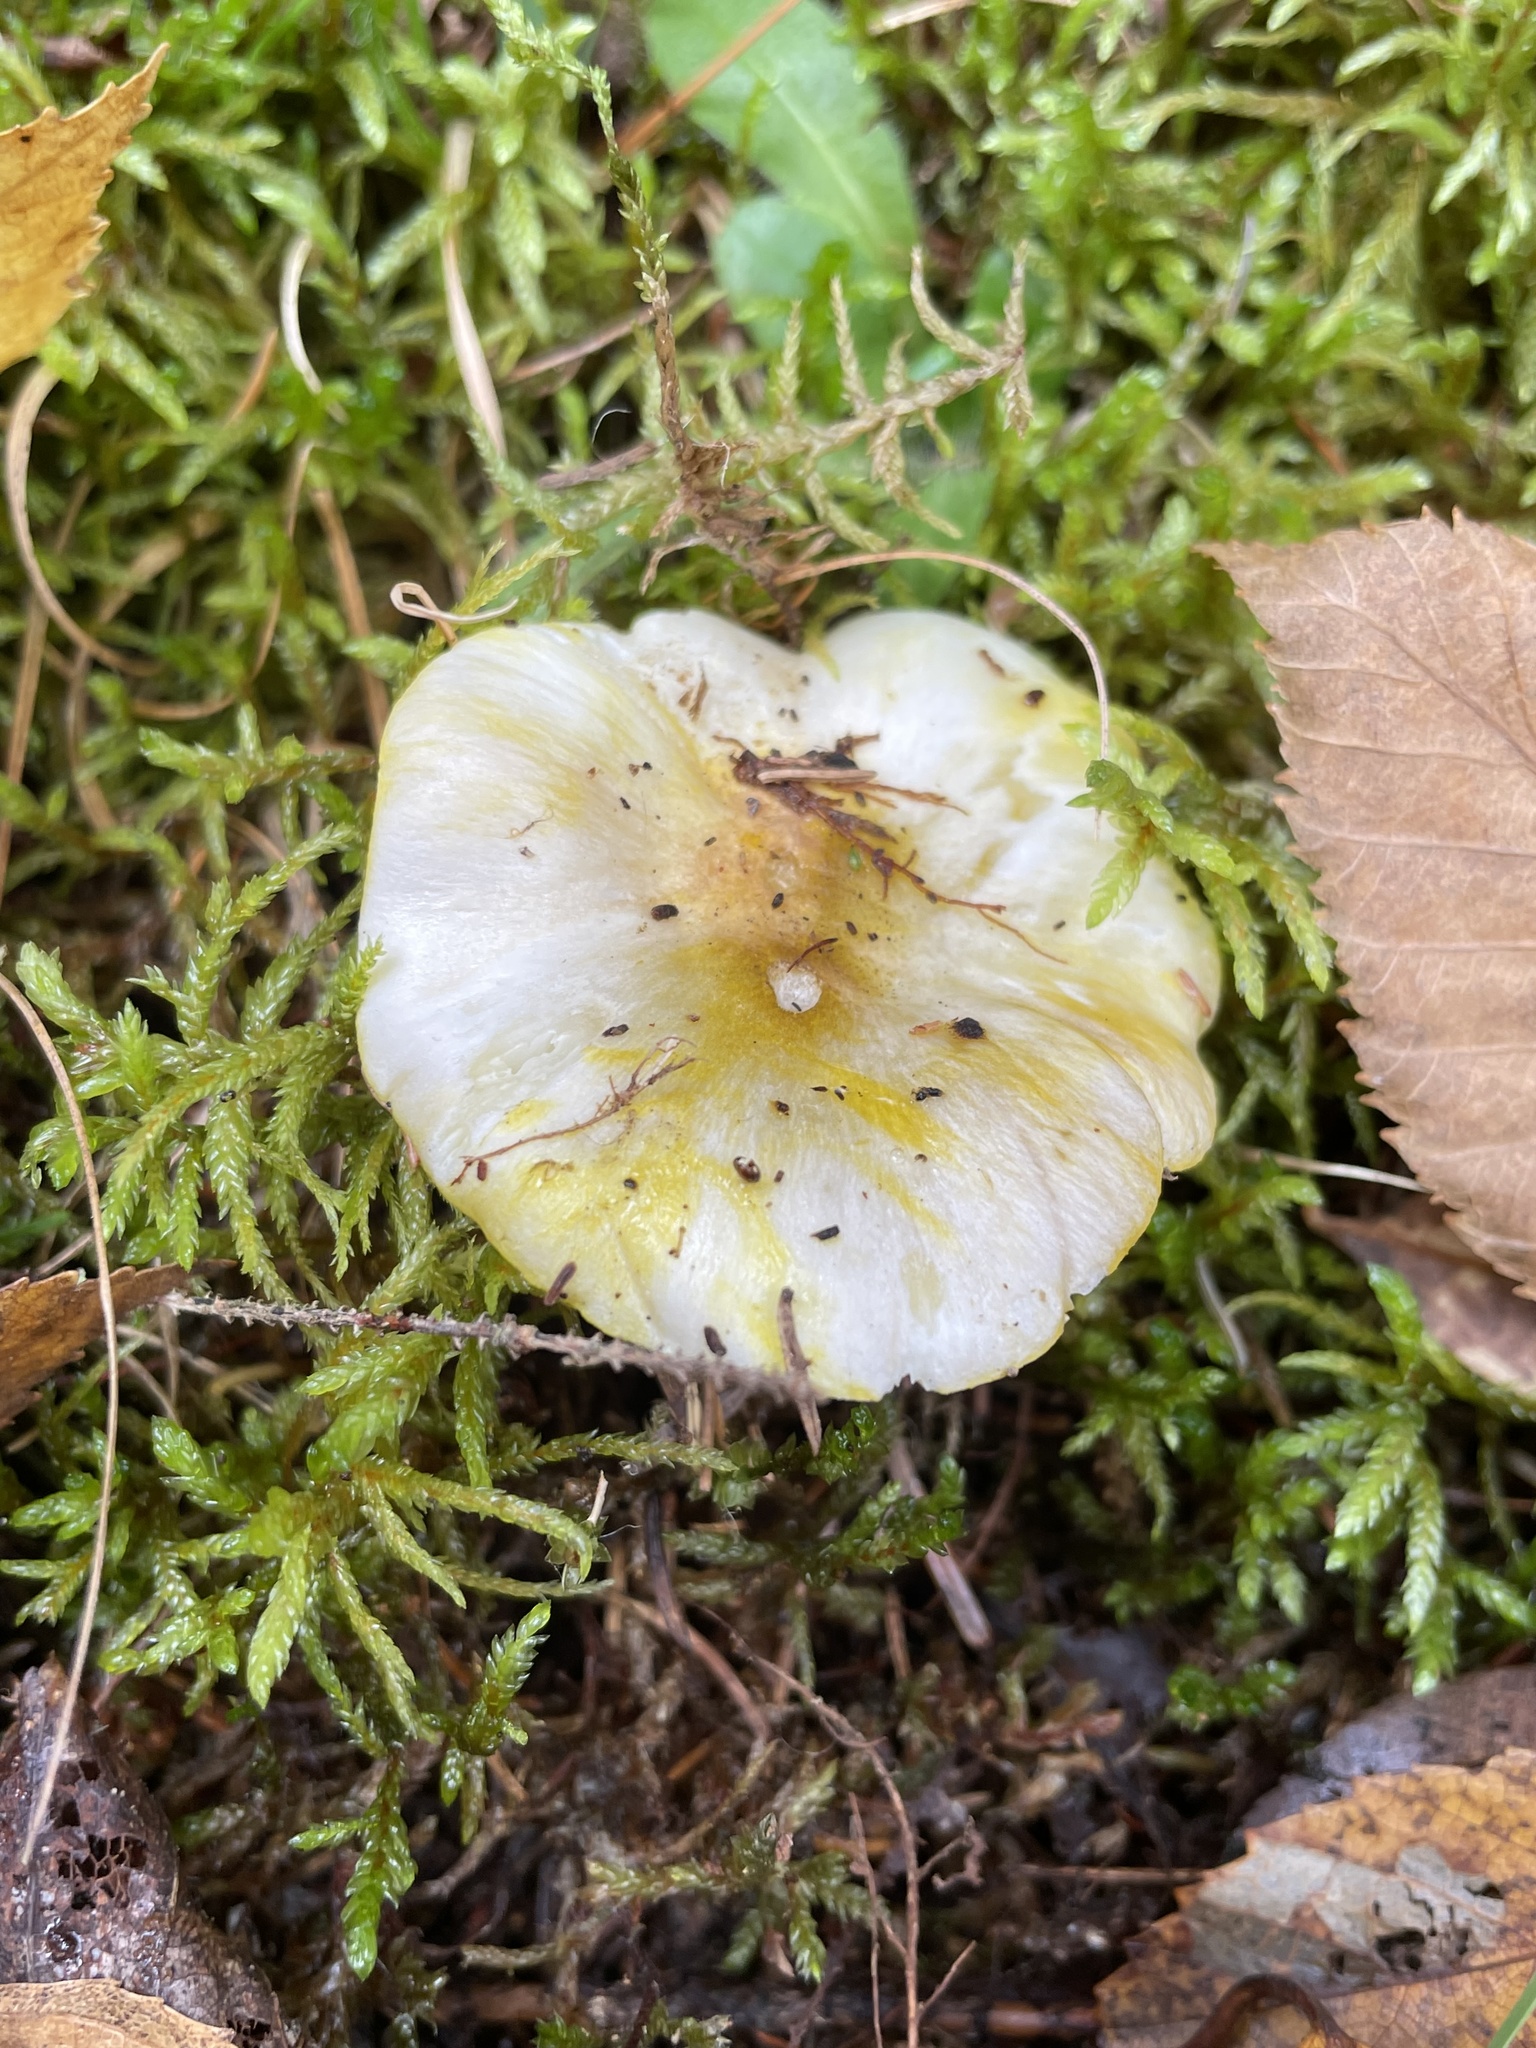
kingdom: Fungi
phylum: Basidiomycota
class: Agaricomycetes
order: Agaricales
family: Hygrophoraceae
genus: Gliophorus
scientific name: Gliophorus laetus
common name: Heath waxcap
